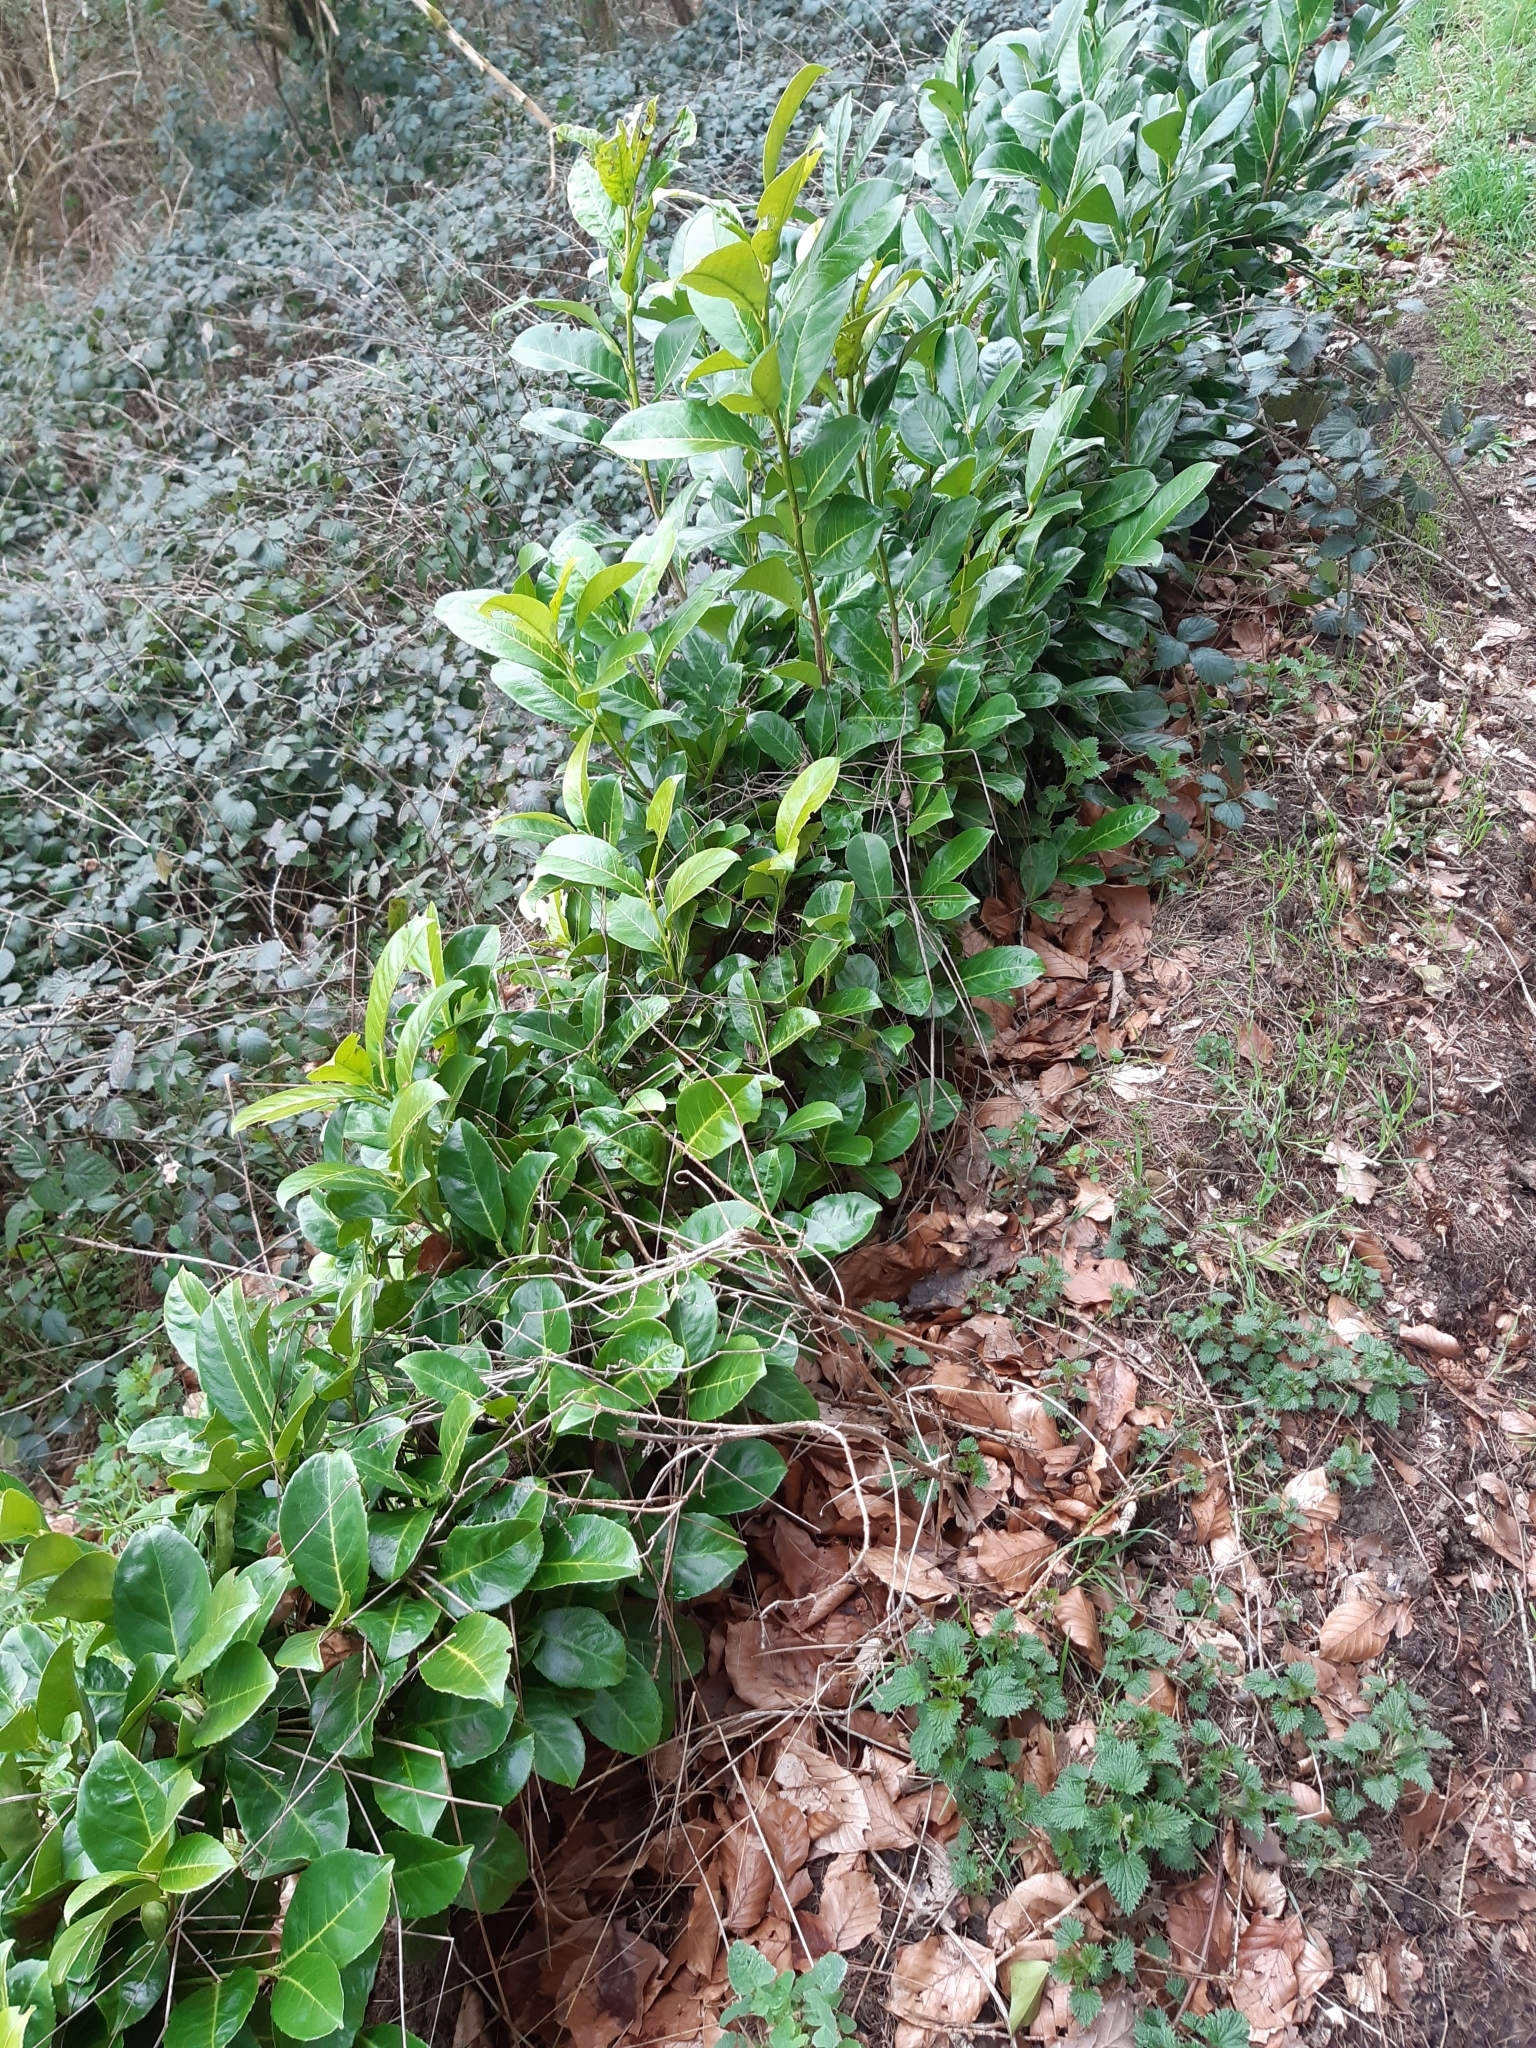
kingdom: Plantae
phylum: Tracheophyta
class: Magnoliopsida
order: Rosales
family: Rosaceae
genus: Prunus
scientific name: Prunus laurocerasus
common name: Cherry laurel
